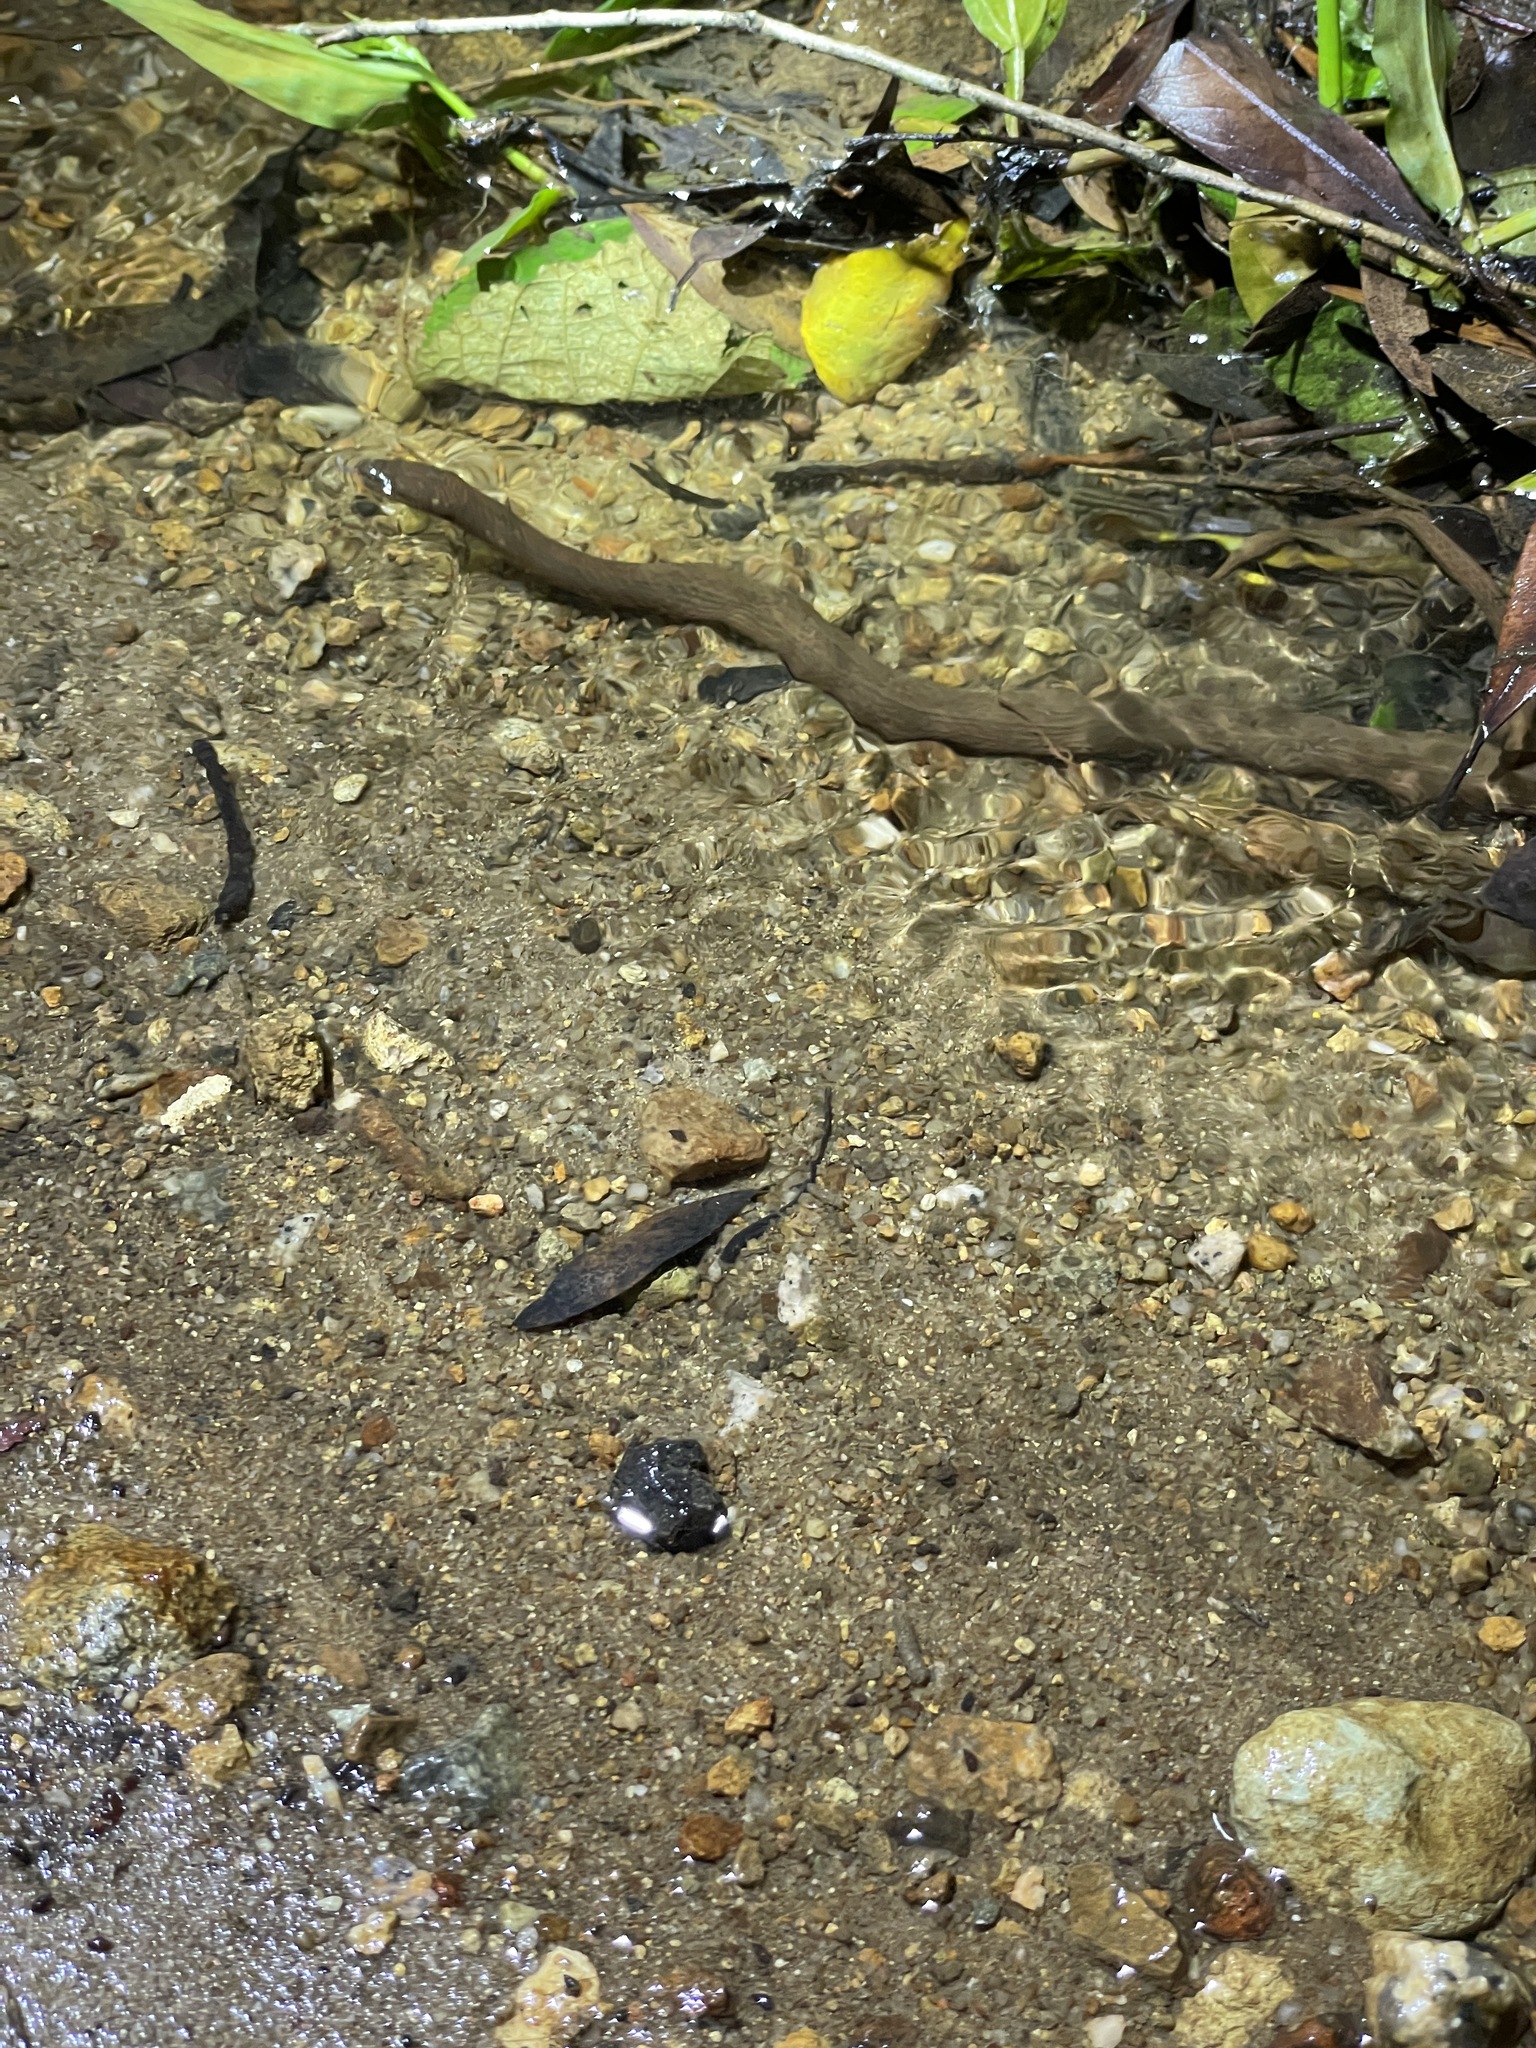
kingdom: Animalia
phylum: Chordata
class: Squamata
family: Colubridae
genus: Opisthotropis
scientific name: Opisthotropis kuatunensis
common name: Chinese mountain keelback
